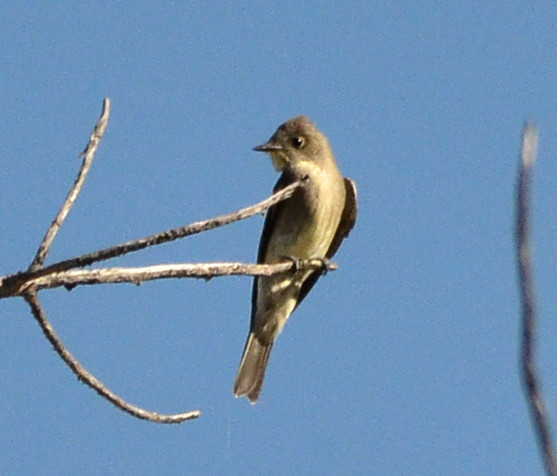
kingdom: Animalia
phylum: Chordata
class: Aves
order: Passeriformes
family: Tyrannidae
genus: Contopus
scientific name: Contopus sordidulus
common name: Western wood-pewee
